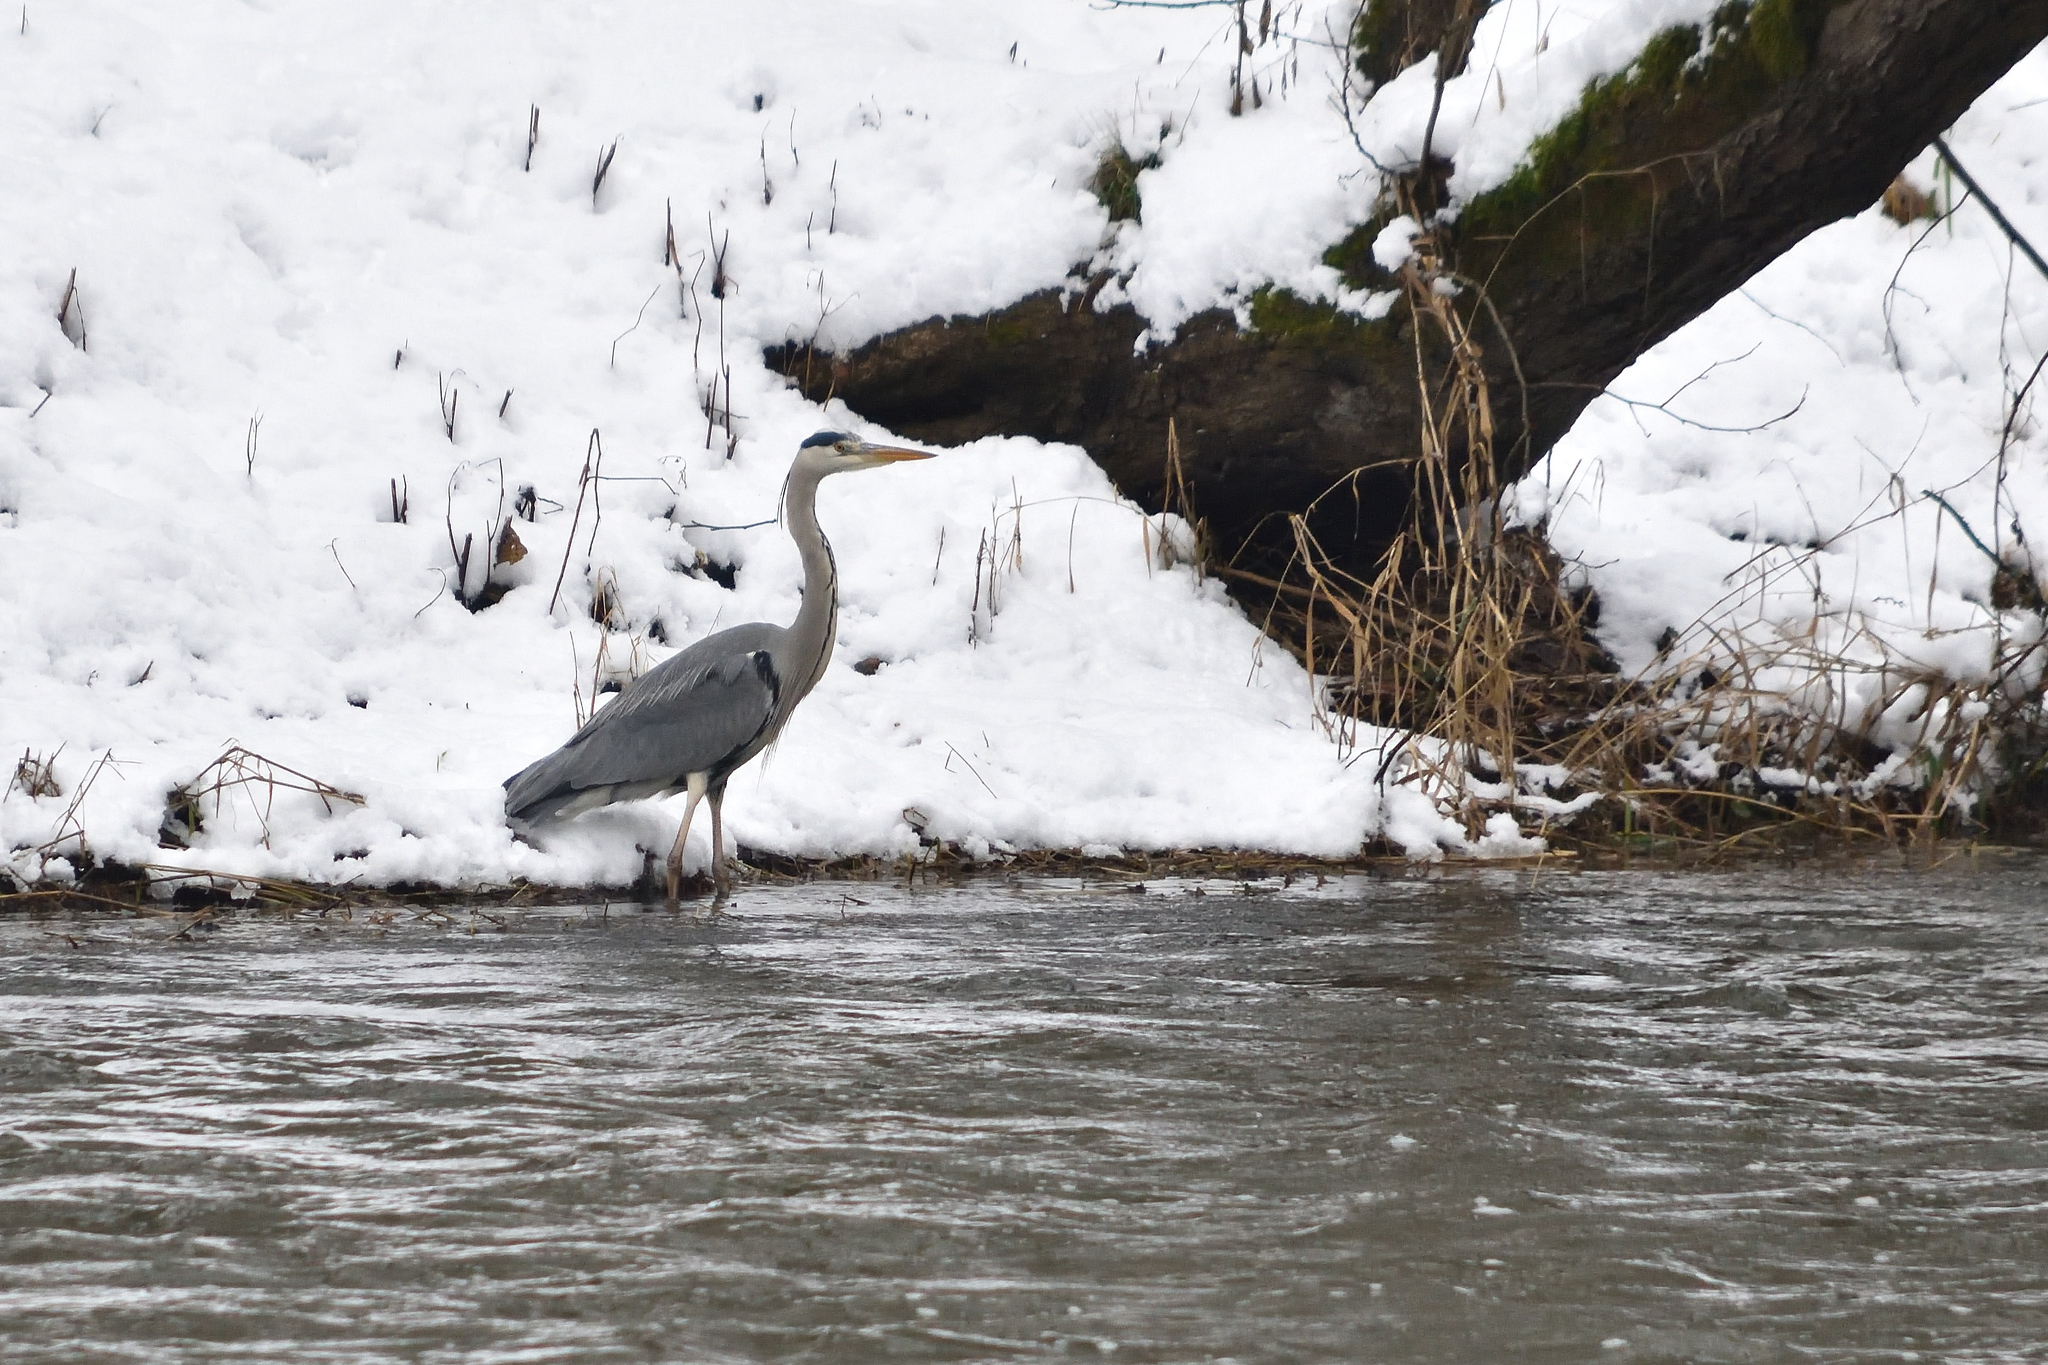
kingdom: Animalia
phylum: Chordata
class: Aves
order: Pelecaniformes
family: Ardeidae
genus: Ardea
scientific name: Ardea cinerea
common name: Grey heron
